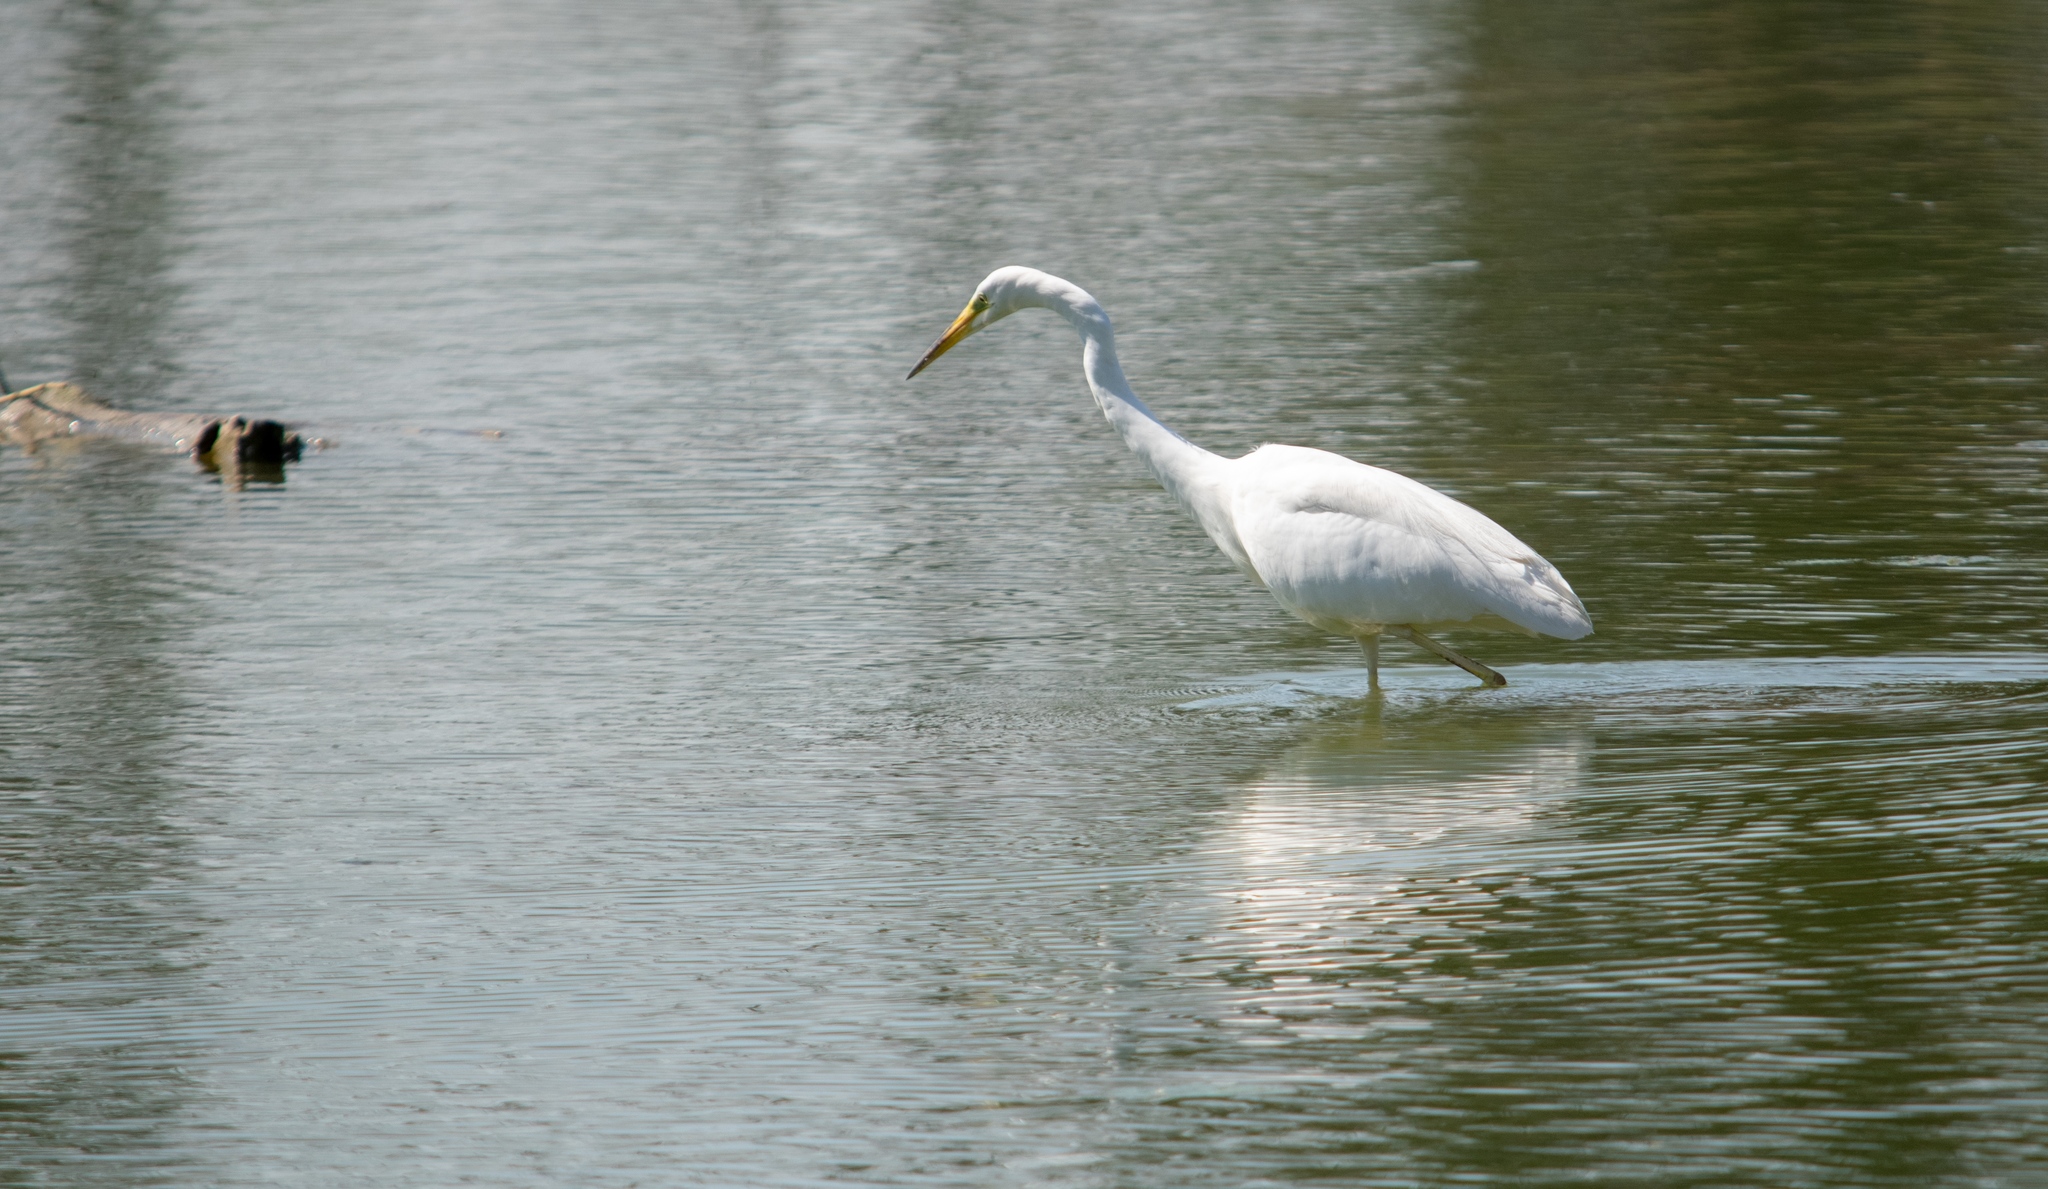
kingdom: Animalia
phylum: Chordata
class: Aves
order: Pelecaniformes
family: Ardeidae
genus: Ardea
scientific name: Ardea alba
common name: Great egret
